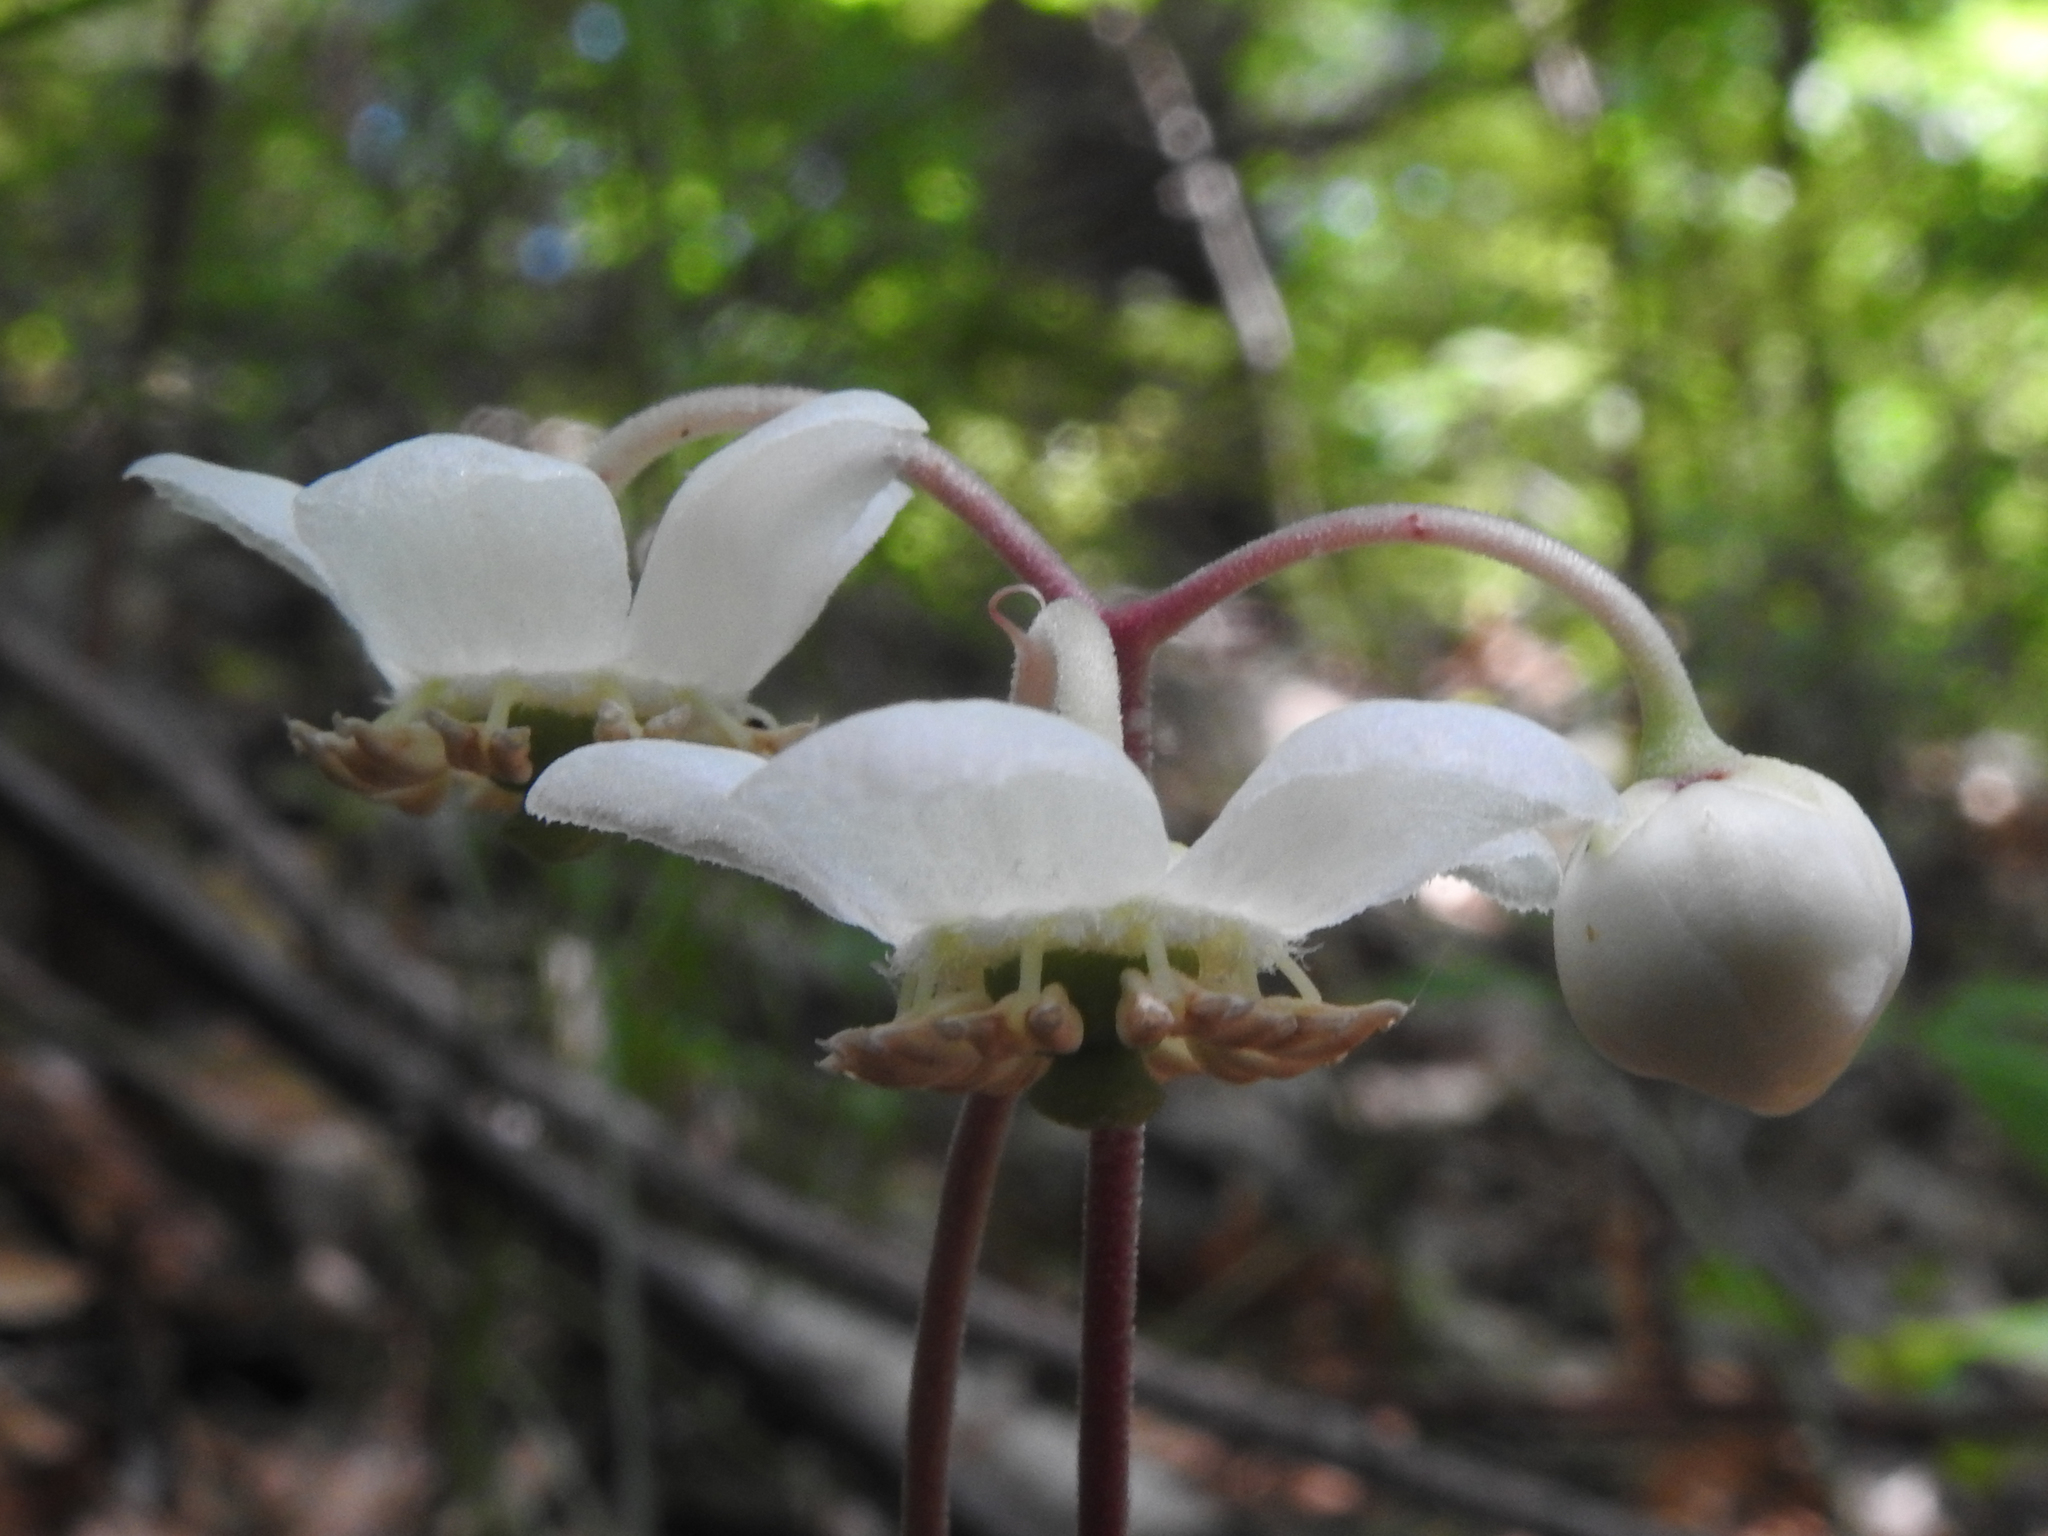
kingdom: Plantae
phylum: Tracheophyta
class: Magnoliopsida
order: Ericales
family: Ericaceae
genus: Chimaphila
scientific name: Chimaphila maculata
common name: Spotted pipsissewa
